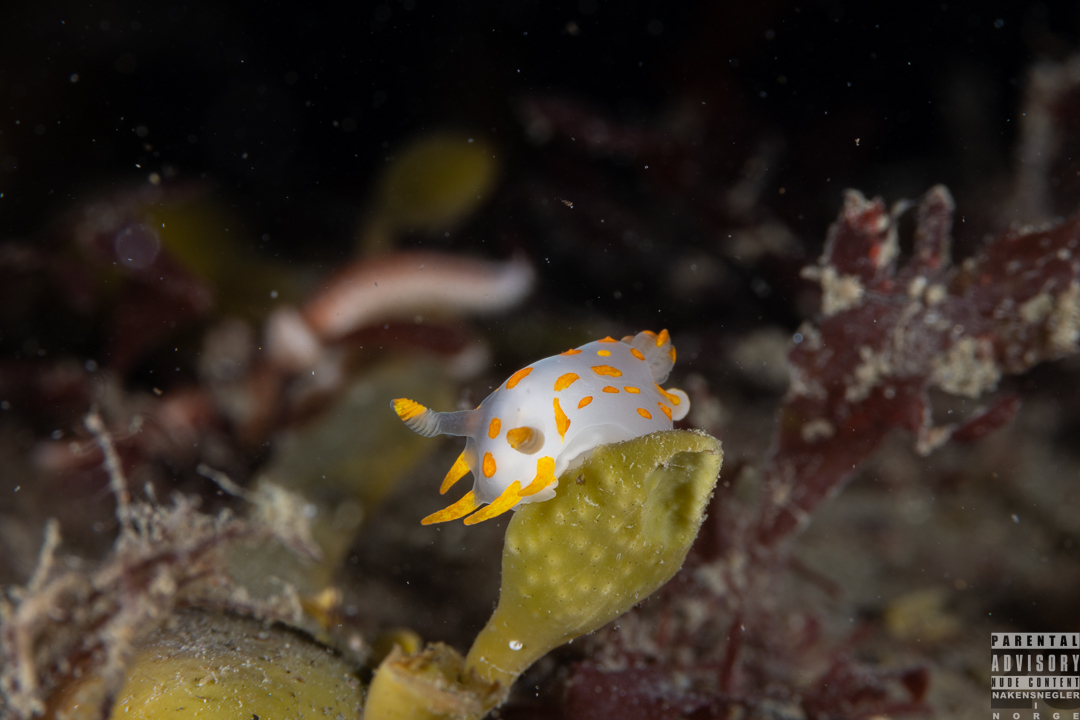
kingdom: Animalia
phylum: Mollusca
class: Gastropoda
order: Nudibranchia
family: Polyceridae
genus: Polycera
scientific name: Polycera quadrilineata
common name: Four-striped polycera
